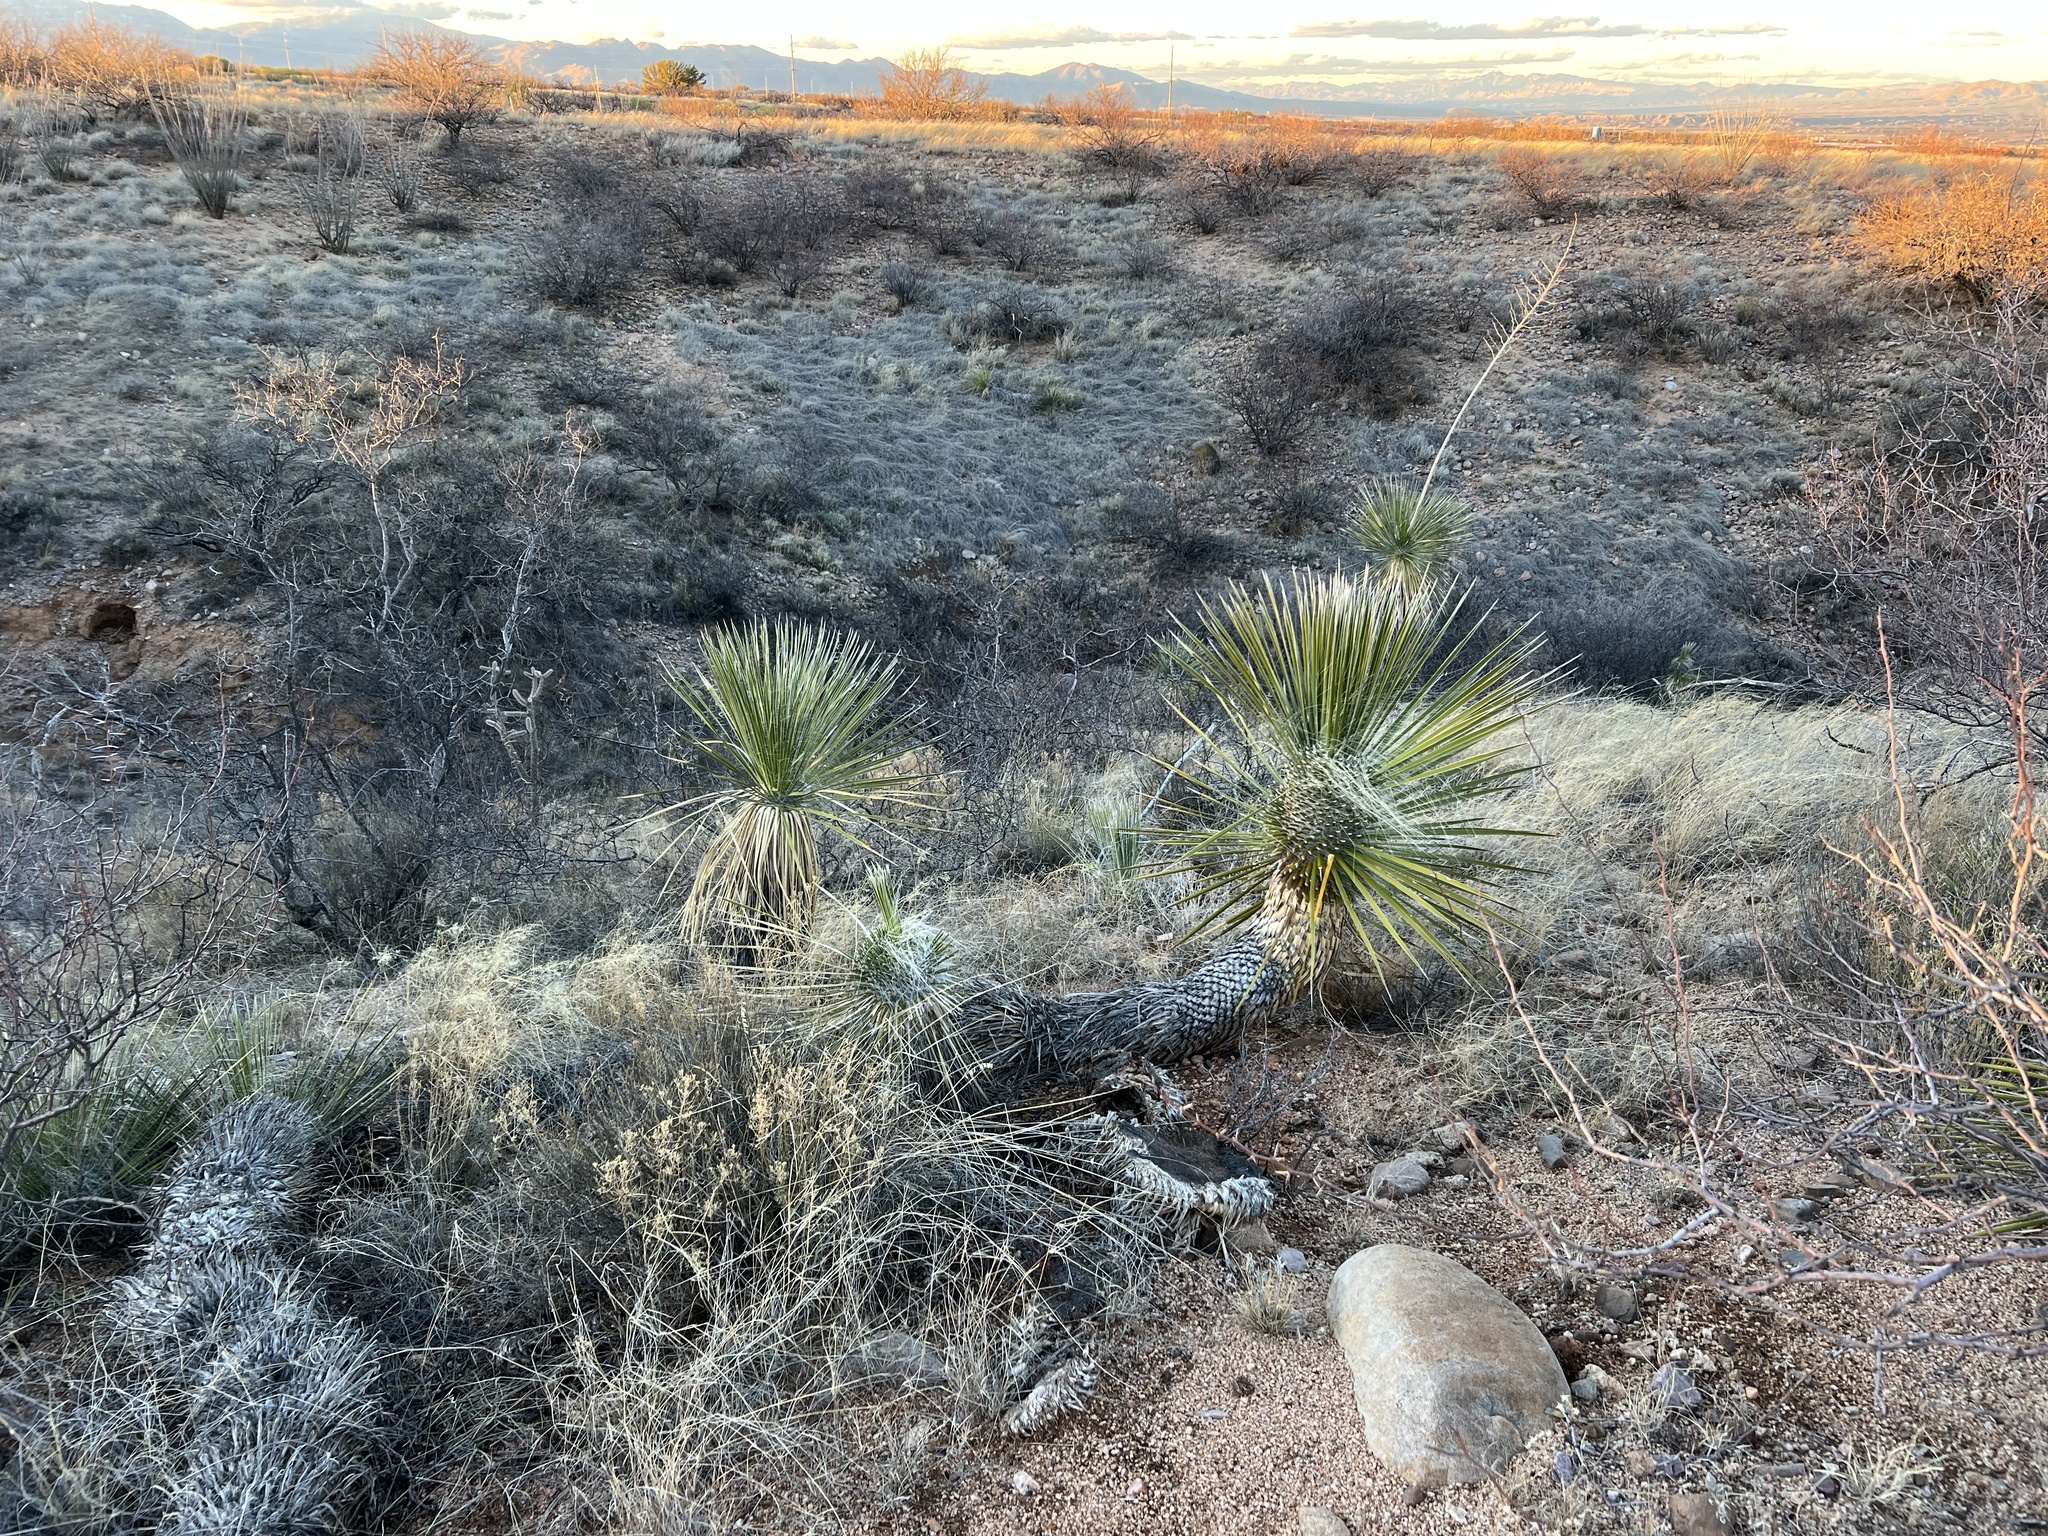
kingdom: Plantae
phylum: Tracheophyta
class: Liliopsida
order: Asparagales
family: Asparagaceae
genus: Yucca
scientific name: Yucca elata
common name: Palmella
